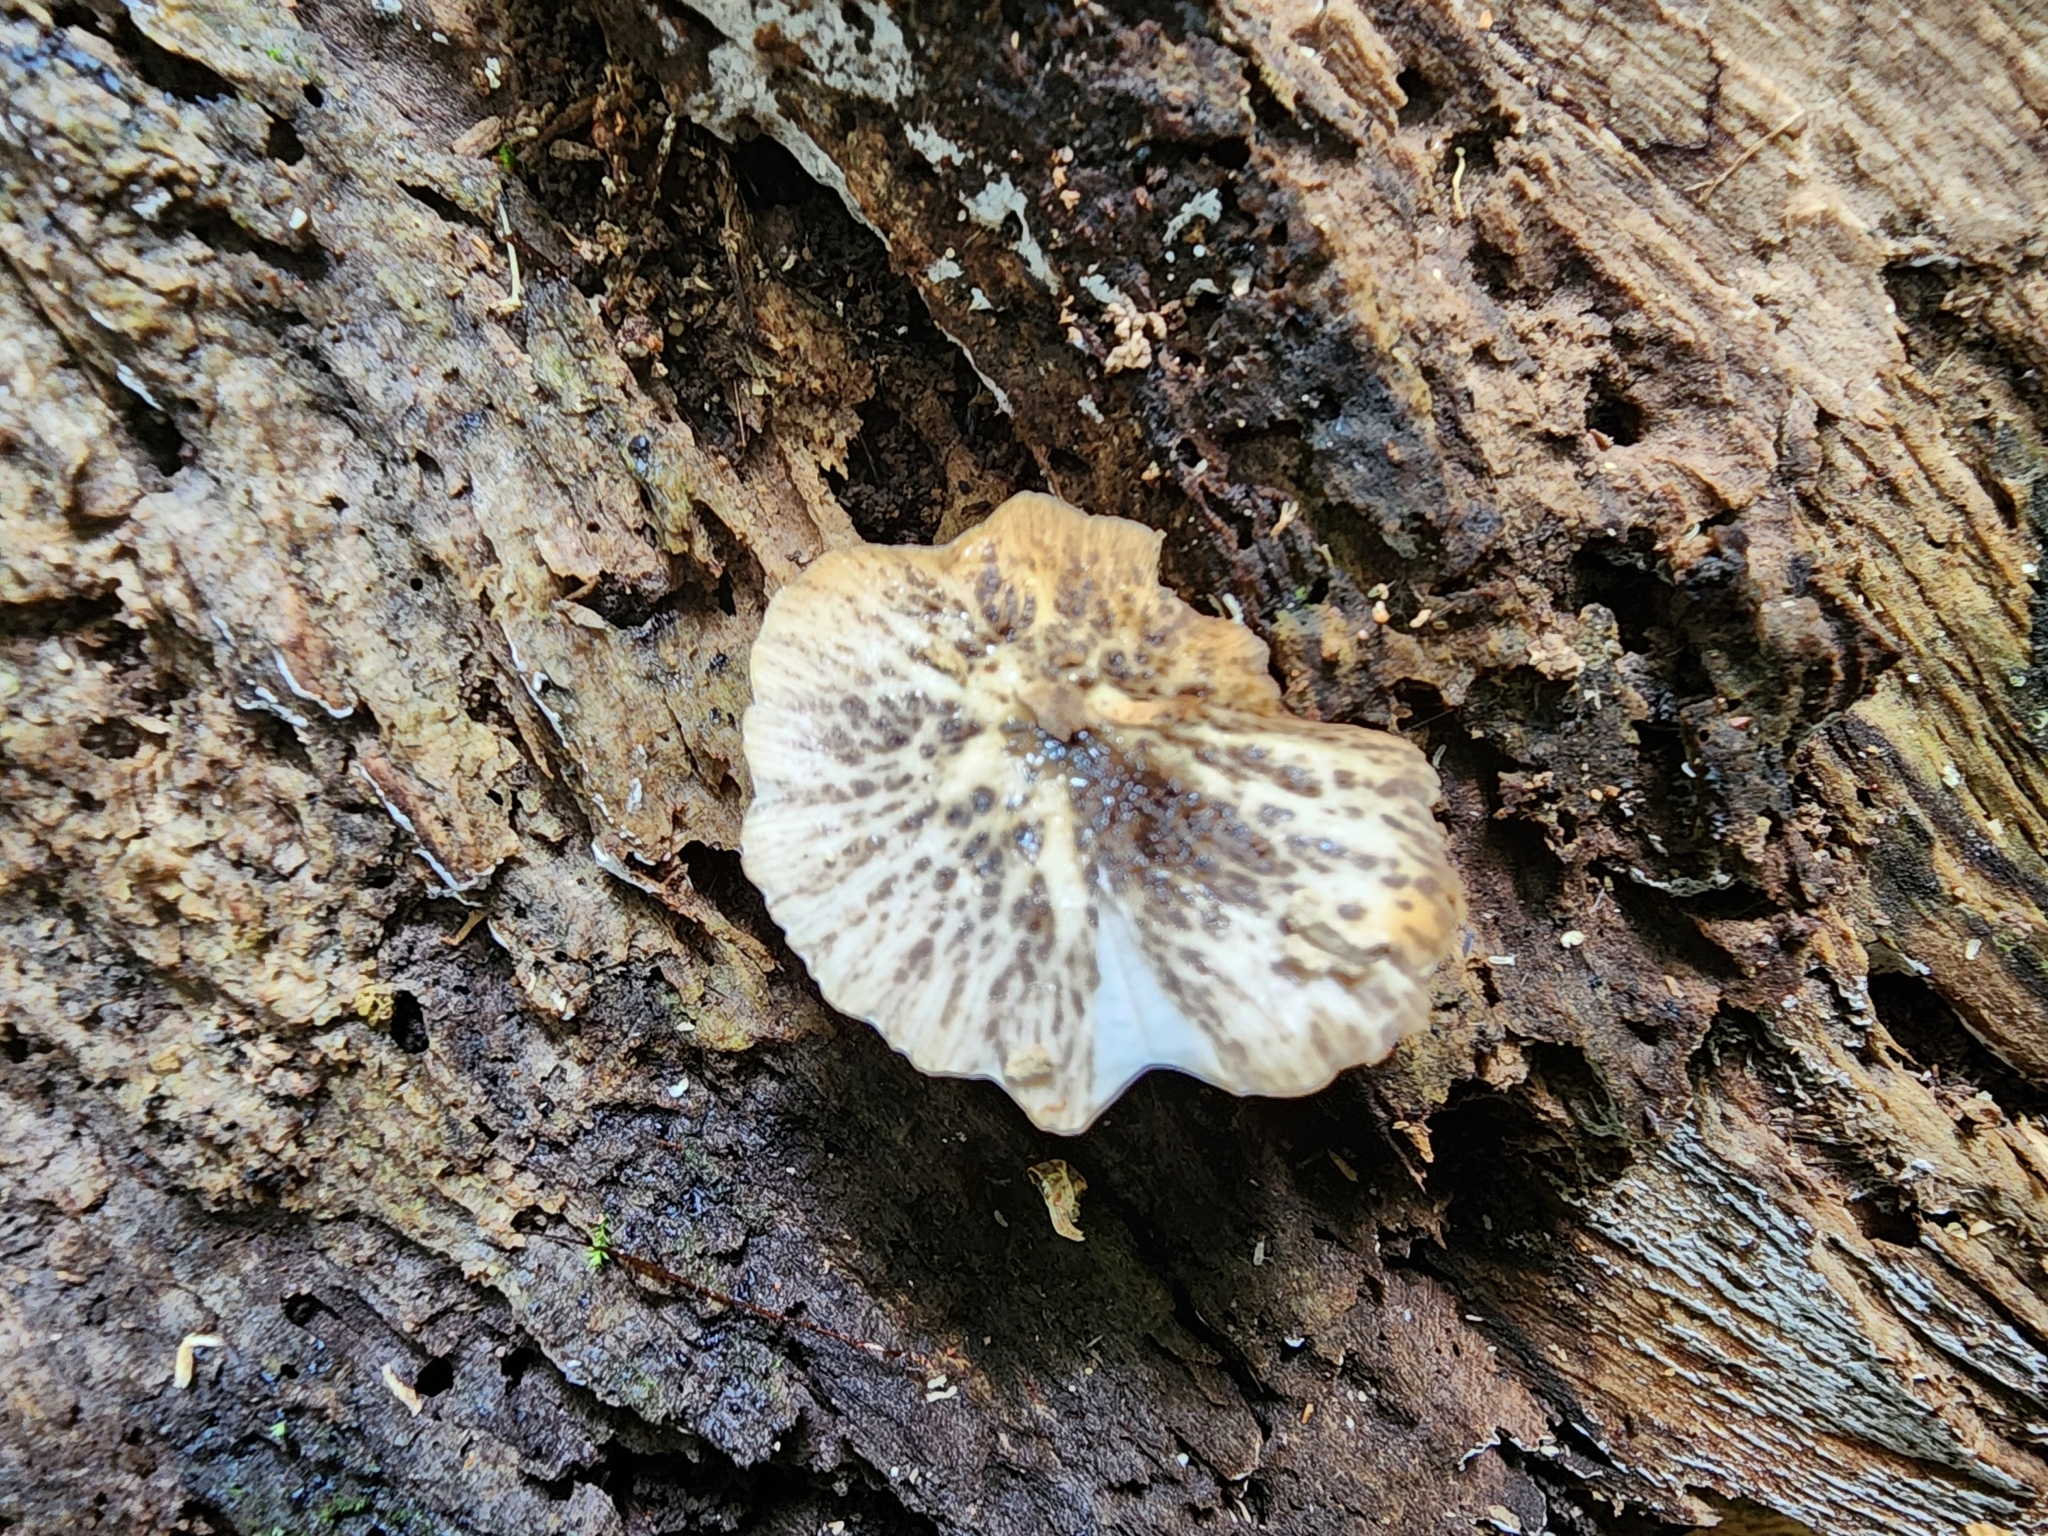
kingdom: Fungi
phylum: Basidiomycota
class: Agaricomycetes
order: Agaricales
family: Bolbitiaceae
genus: Bolbitius
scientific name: Bolbitius muscicola
